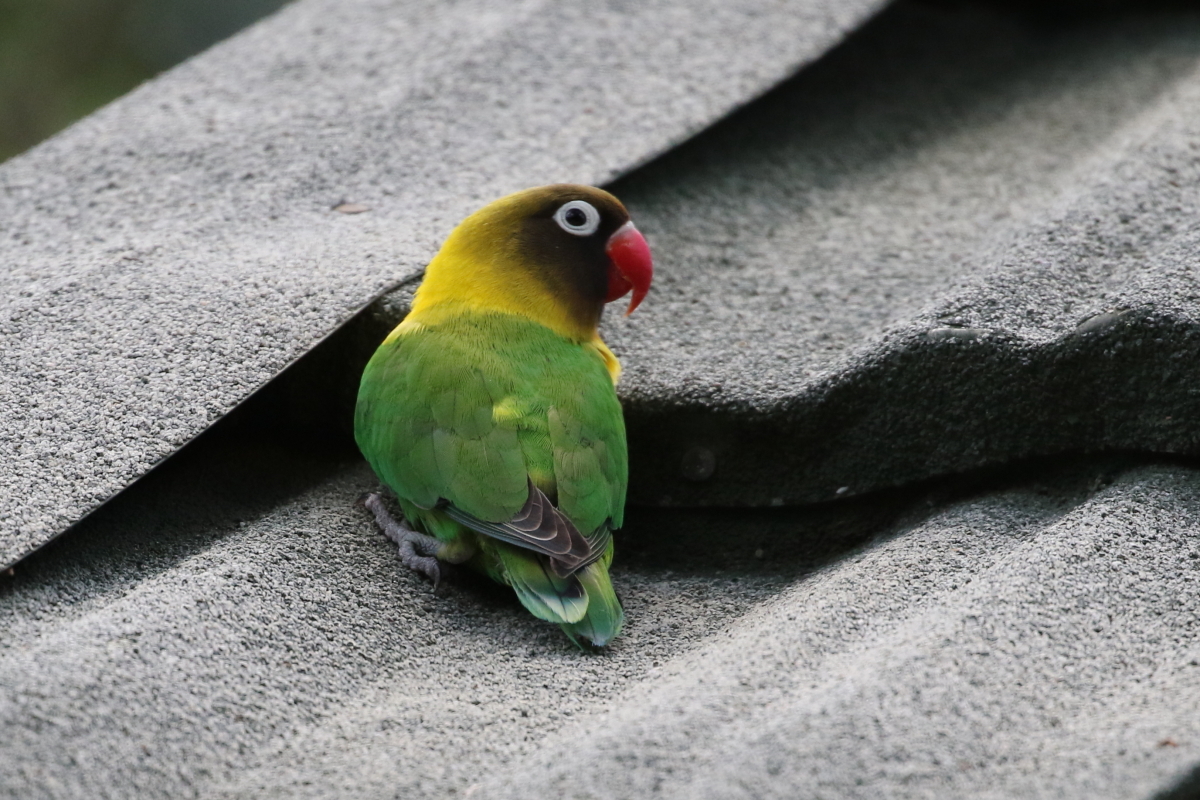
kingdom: Animalia
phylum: Chordata
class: Aves
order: Psittaciformes
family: Psittacidae
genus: Agapornis
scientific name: Agapornis personatus
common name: Yellow-collared lovebird
